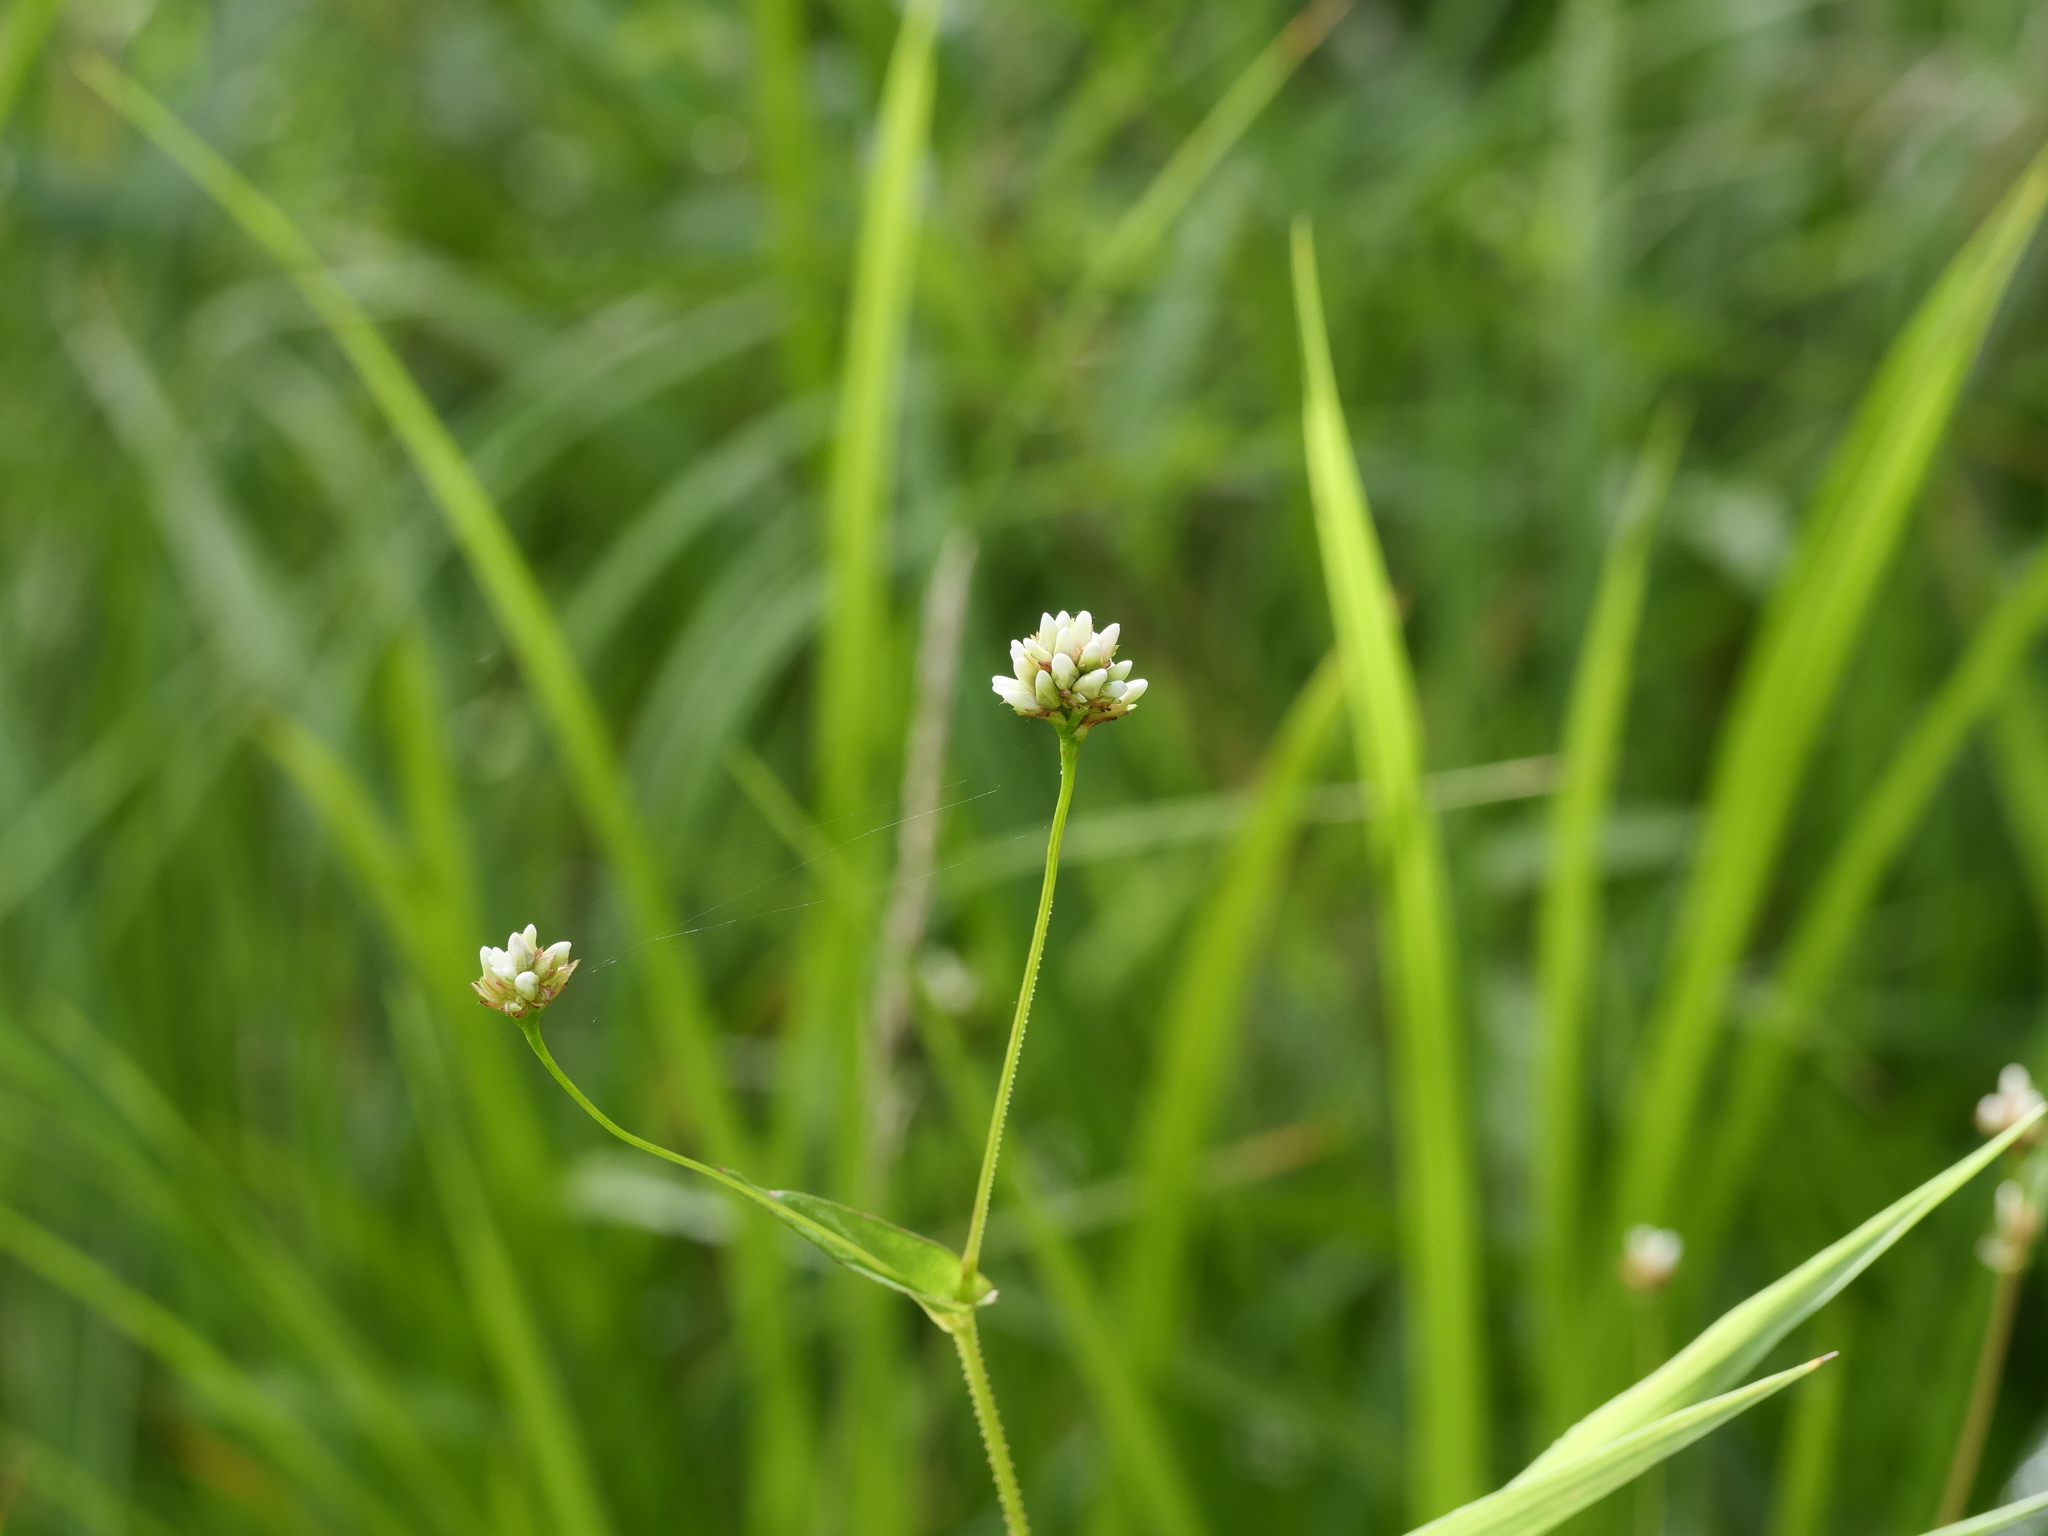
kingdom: Plantae
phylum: Tracheophyta
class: Magnoliopsida
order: Caryophyllales
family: Polygonaceae
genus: Persicaria
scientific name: Persicaria sagittata
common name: American tearthumb
